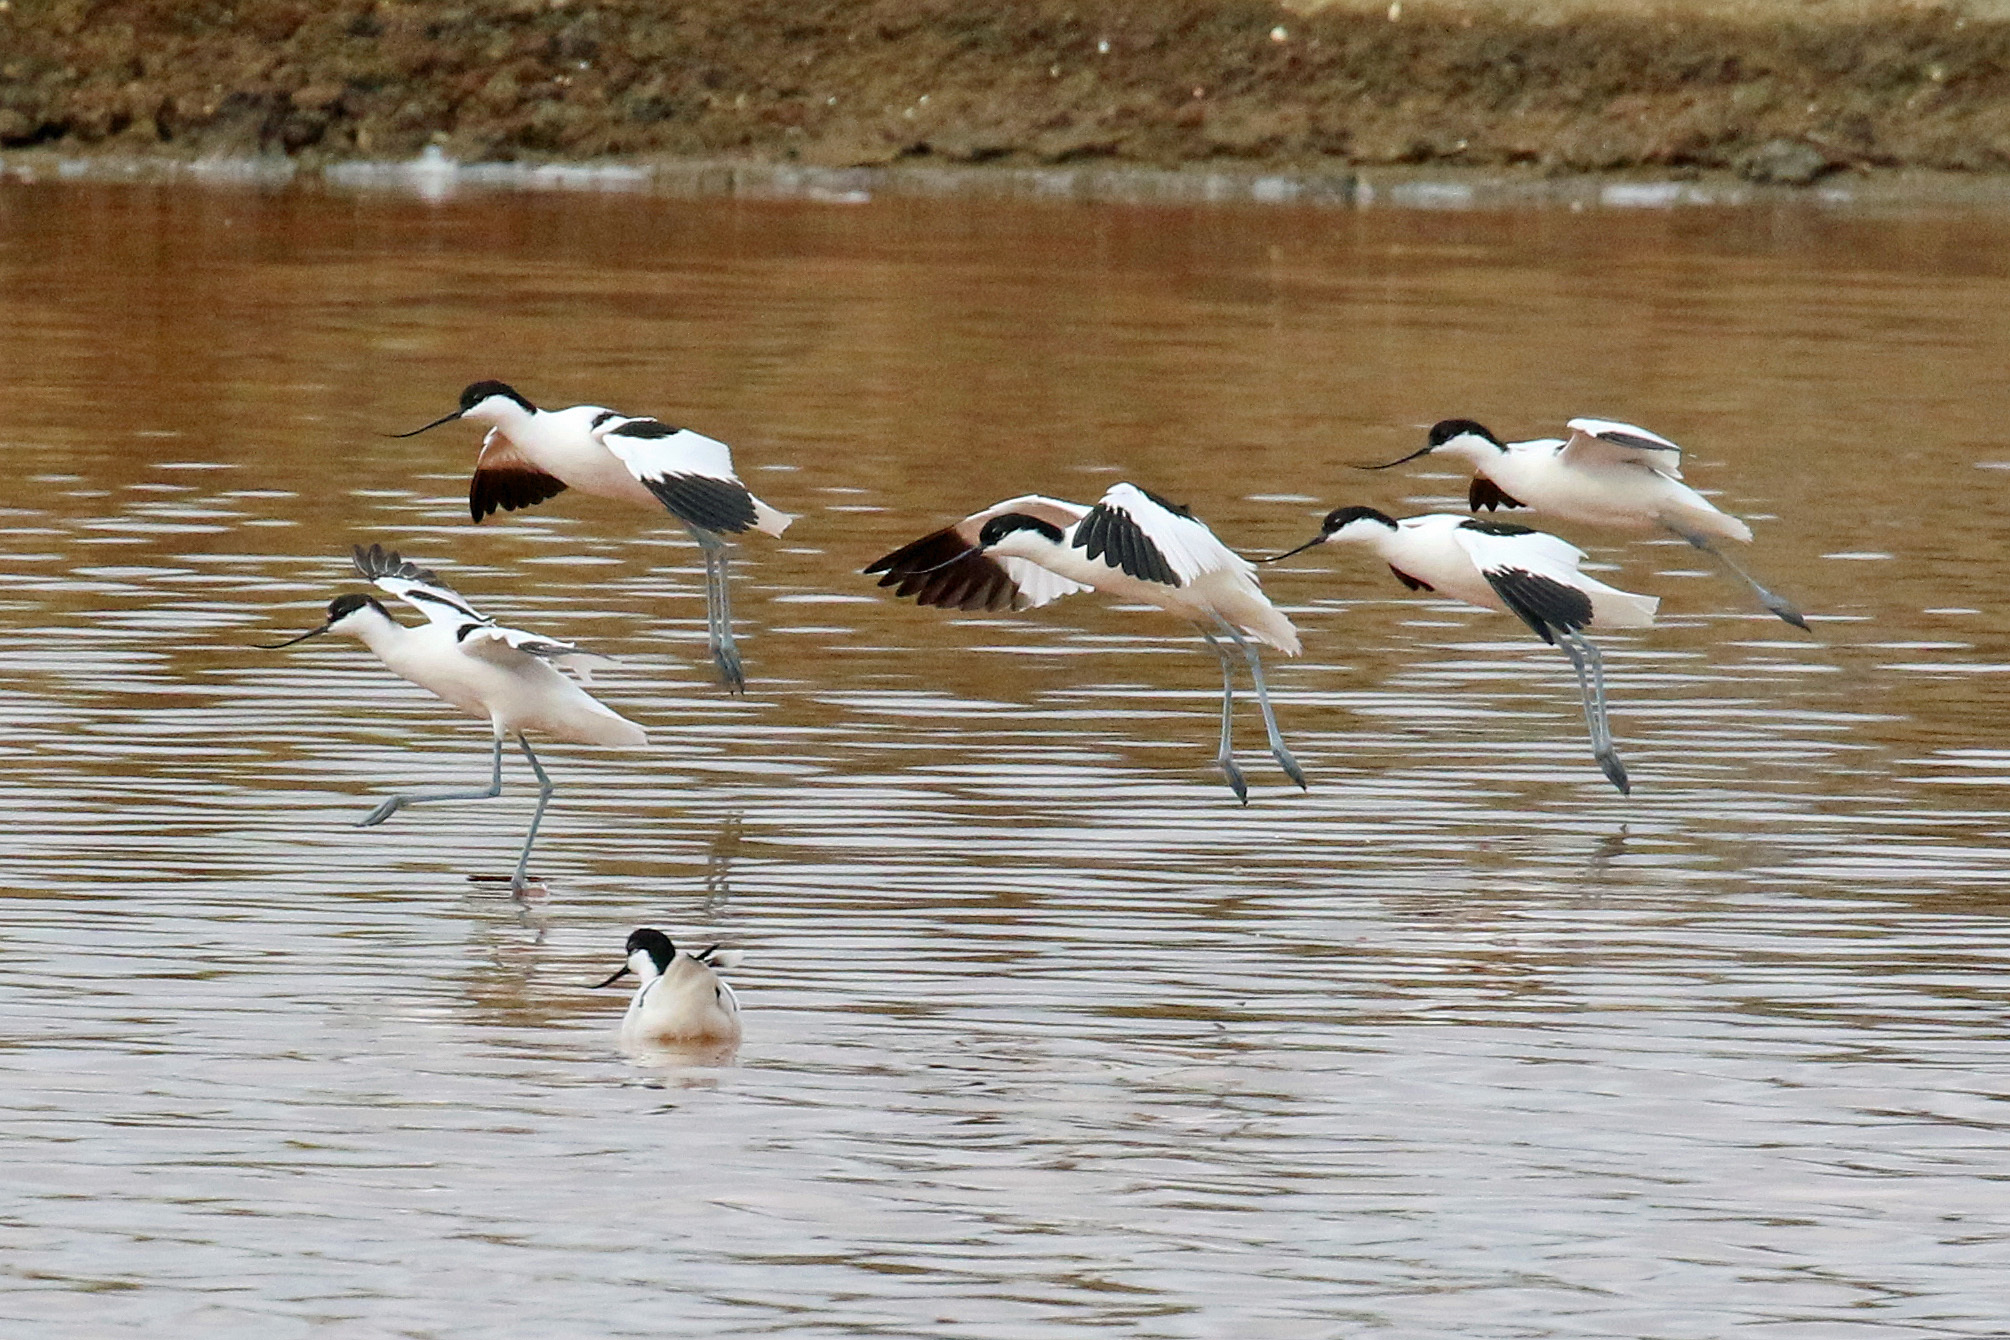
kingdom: Animalia
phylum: Chordata
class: Aves
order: Charadriiformes
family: Recurvirostridae
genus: Recurvirostra
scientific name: Recurvirostra avosetta
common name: Pied avocet
